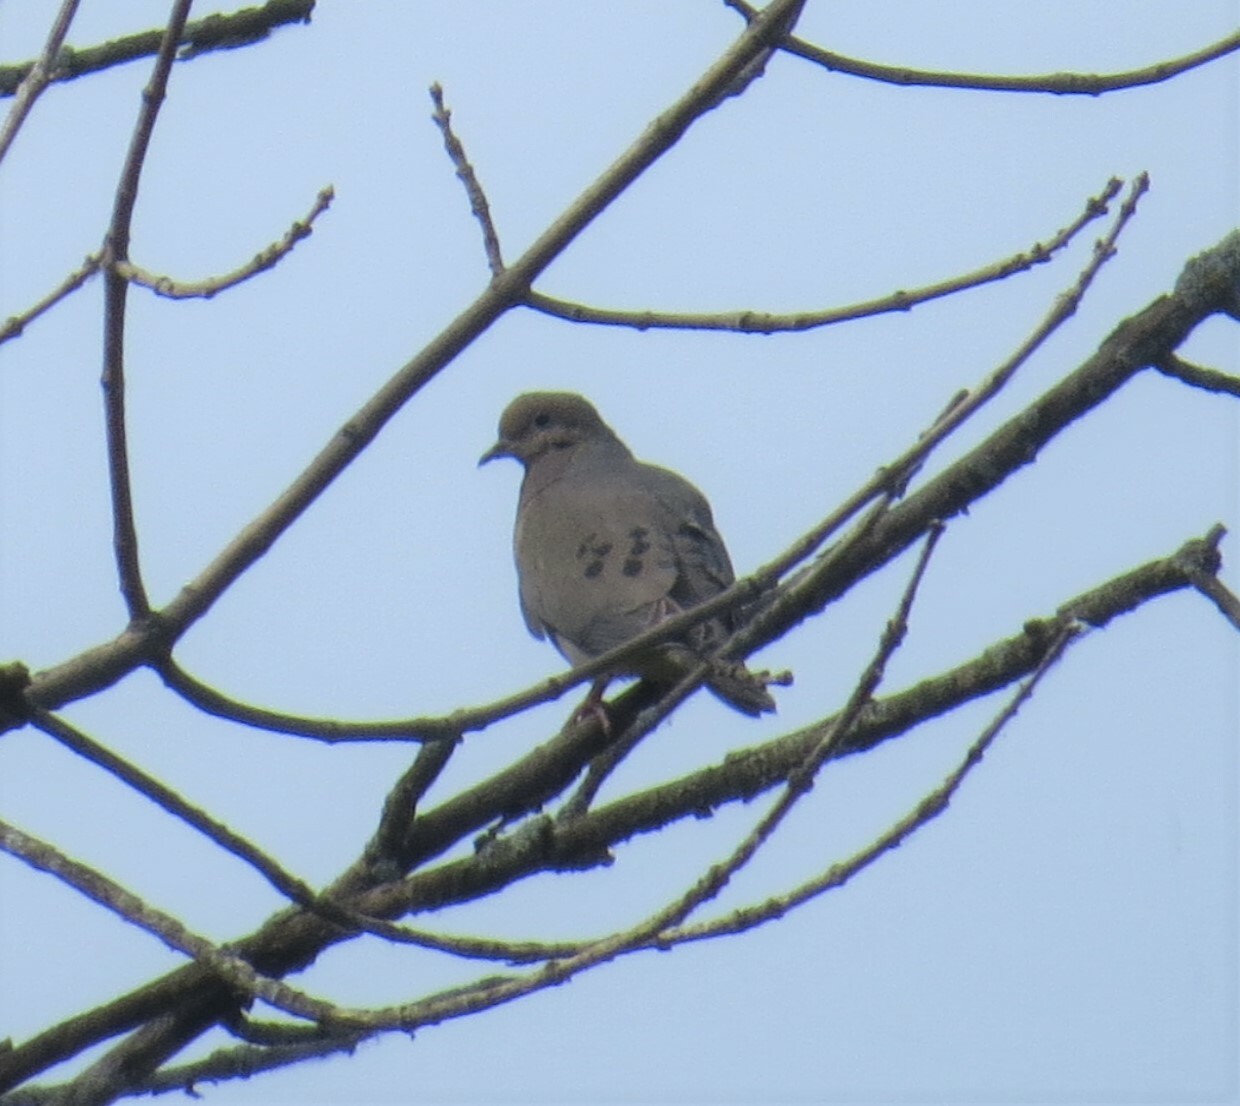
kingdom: Animalia
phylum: Chordata
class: Aves
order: Columbiformes
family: Columbidae
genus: Zenaida
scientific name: Zenaida macroura
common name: Mourning dove
